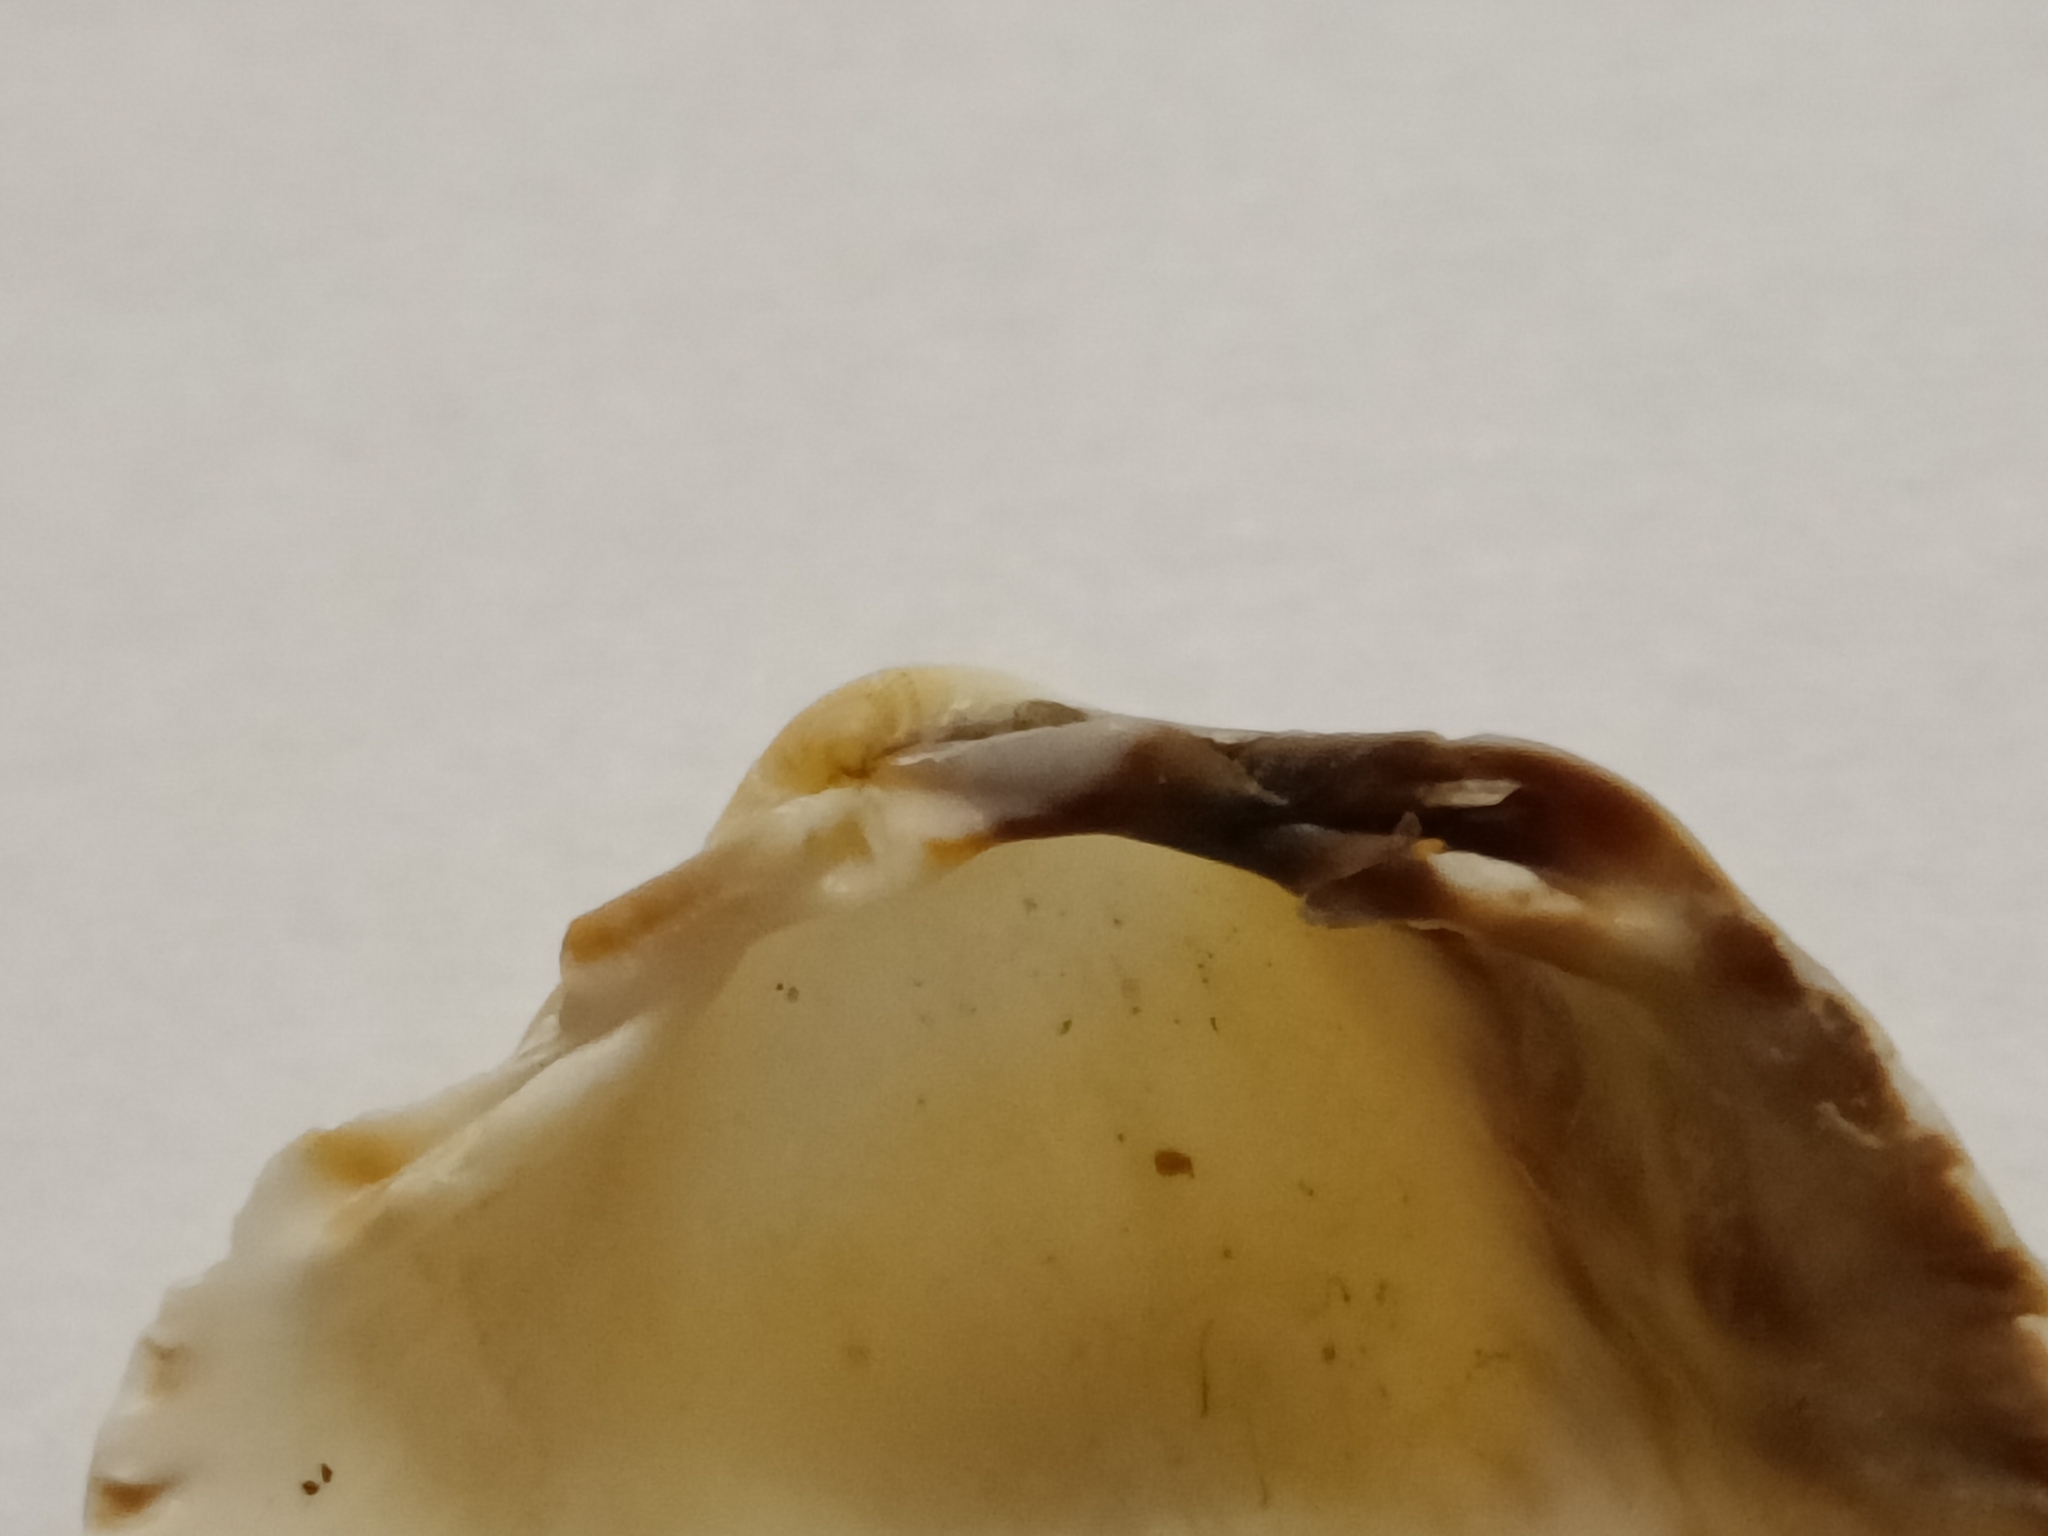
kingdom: Animalia
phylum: Mollusca
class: Bivalvia
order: Cardiida
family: Cardiidae
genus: Cerastoderma
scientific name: Cerastoderma edule
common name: Common cockle
